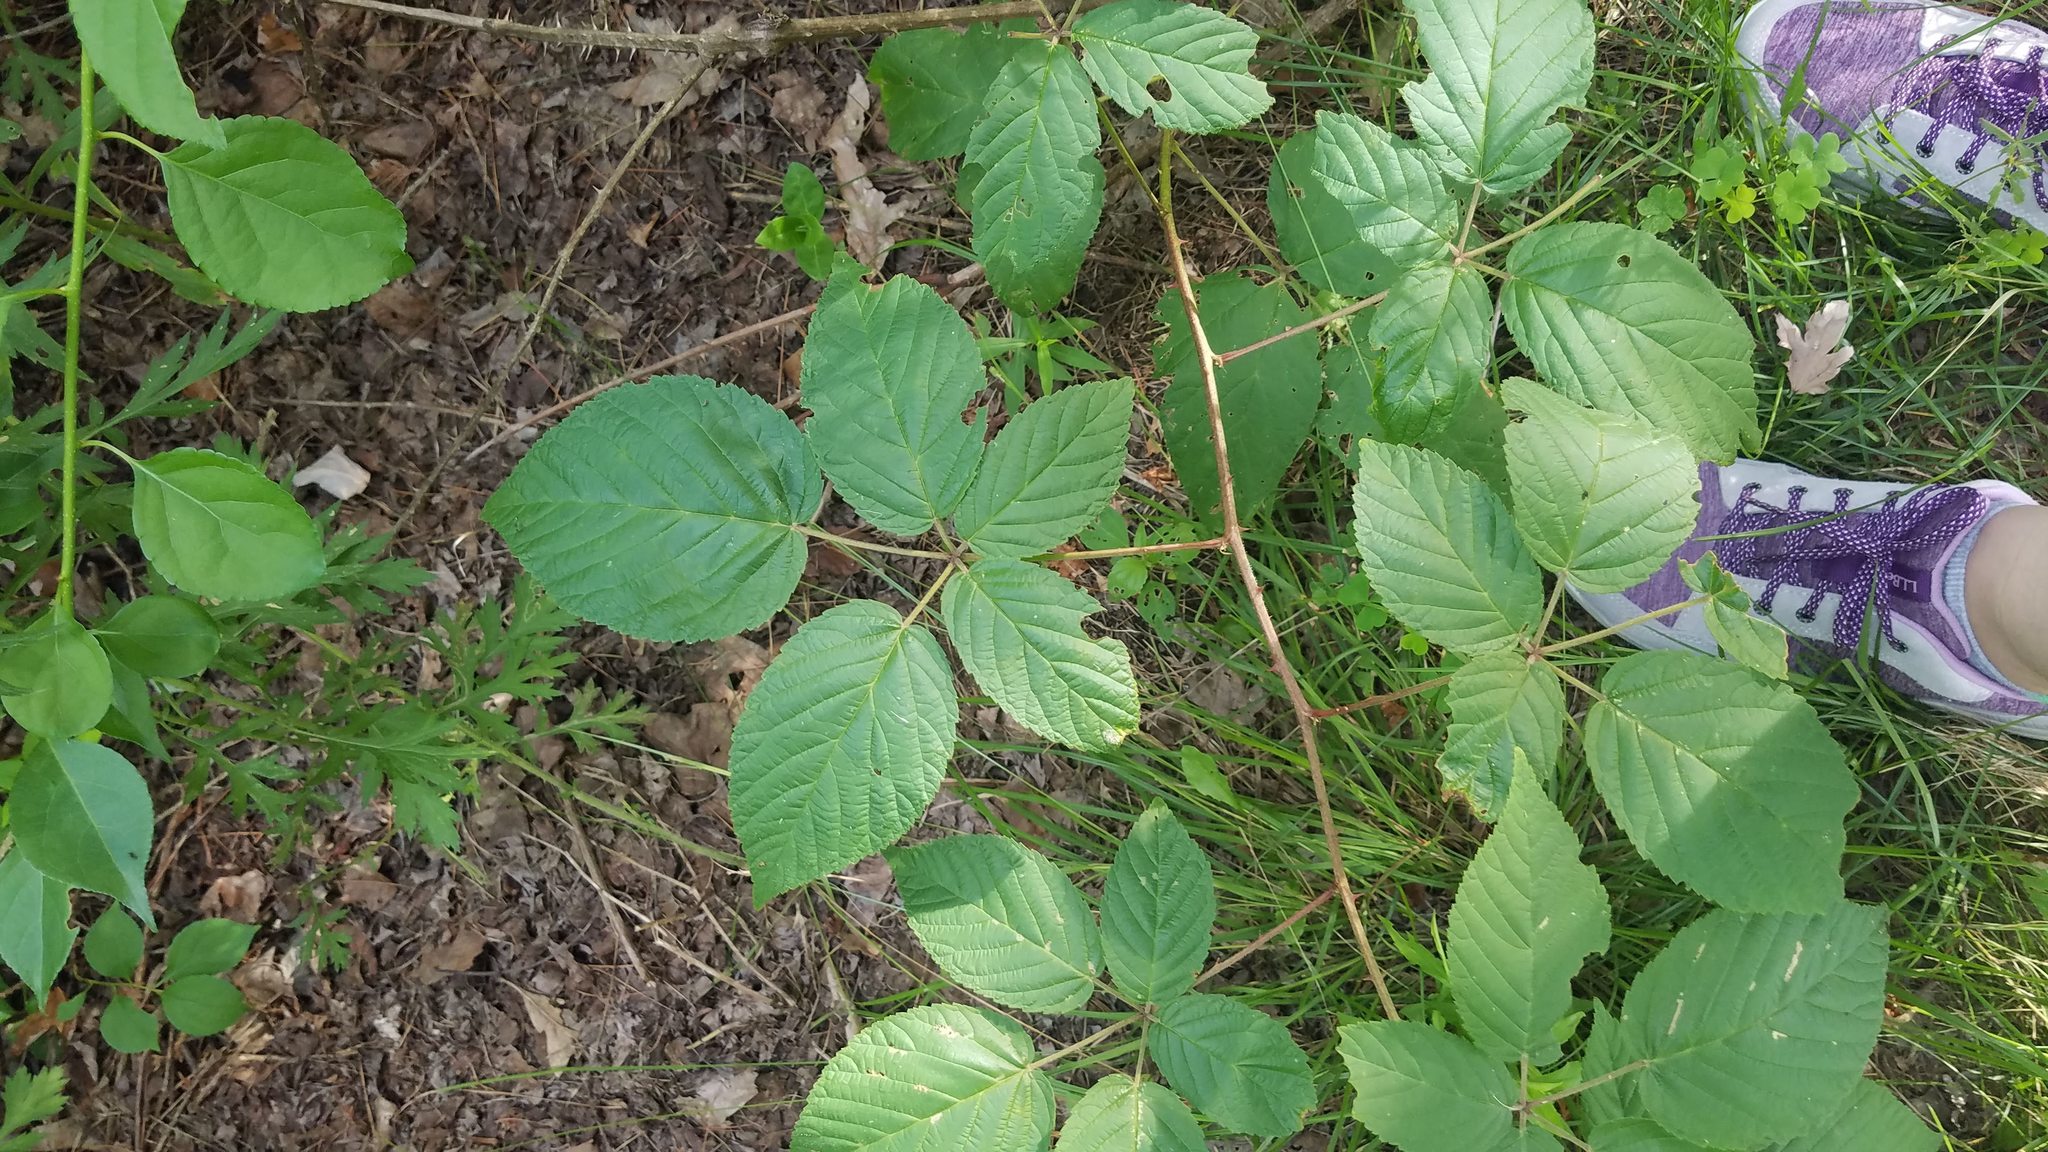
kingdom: Plantae
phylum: Tracheophyta
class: Magnoliopsida
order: Rosales
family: Rosaceae
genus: Rubus
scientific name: Rubus allegheniensis
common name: Allegheny blackberry
